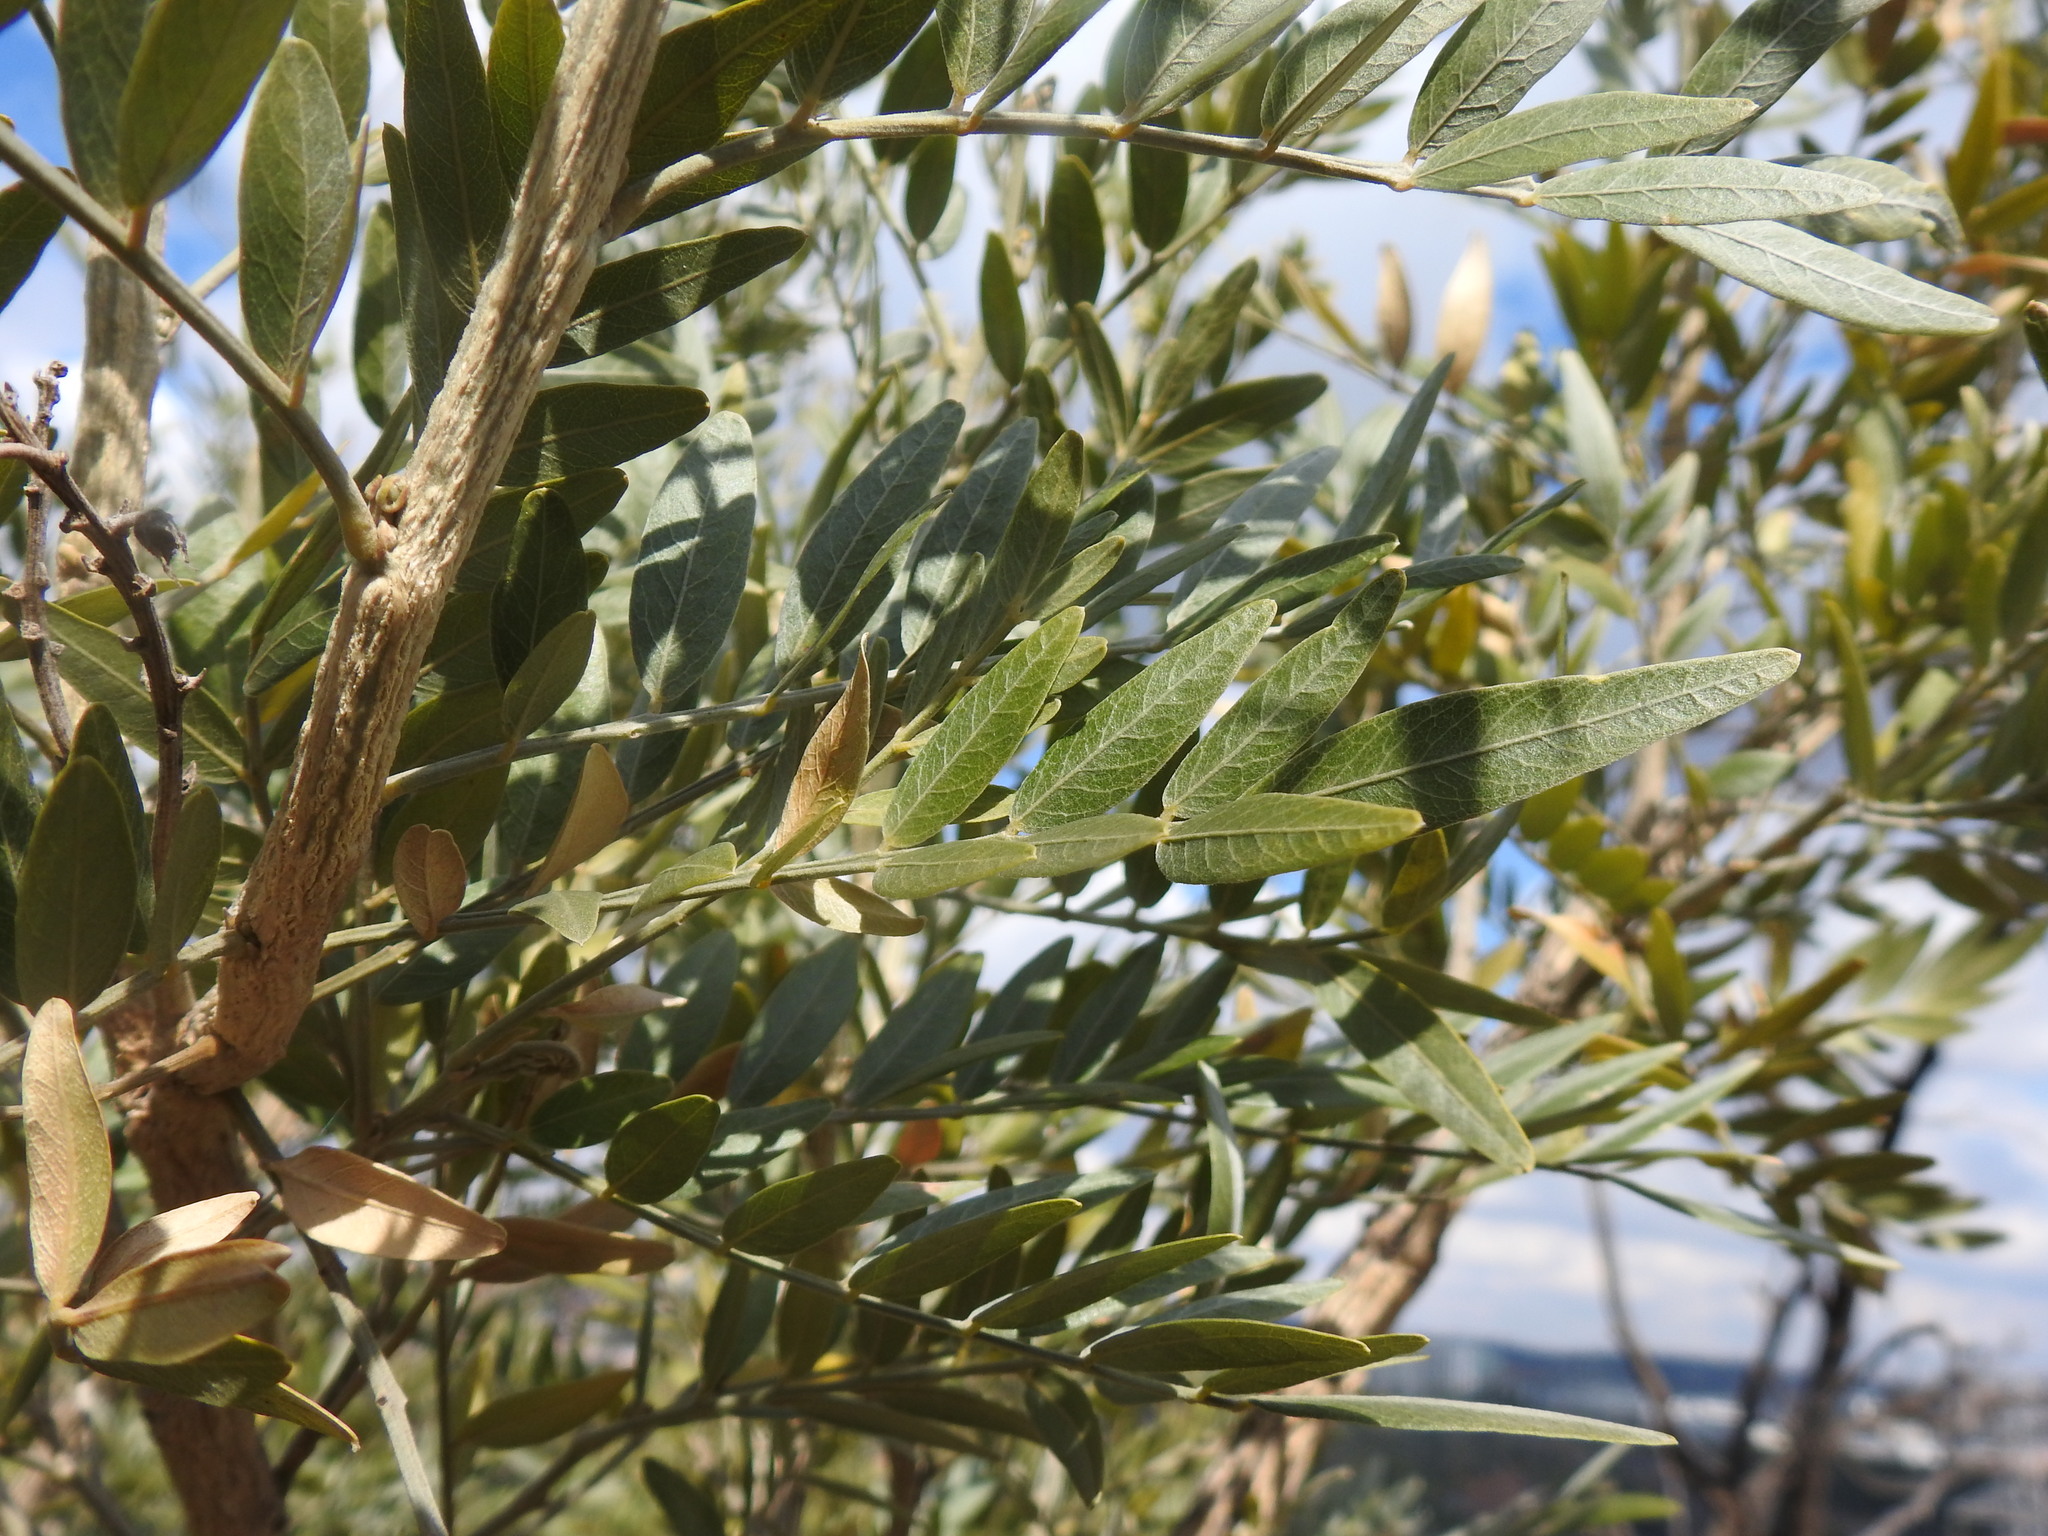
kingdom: Plantae
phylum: Tracheophyta
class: Magnoliopsida
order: Fabales
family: Fabaceae
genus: Mundulea
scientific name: Mundulea sericea
